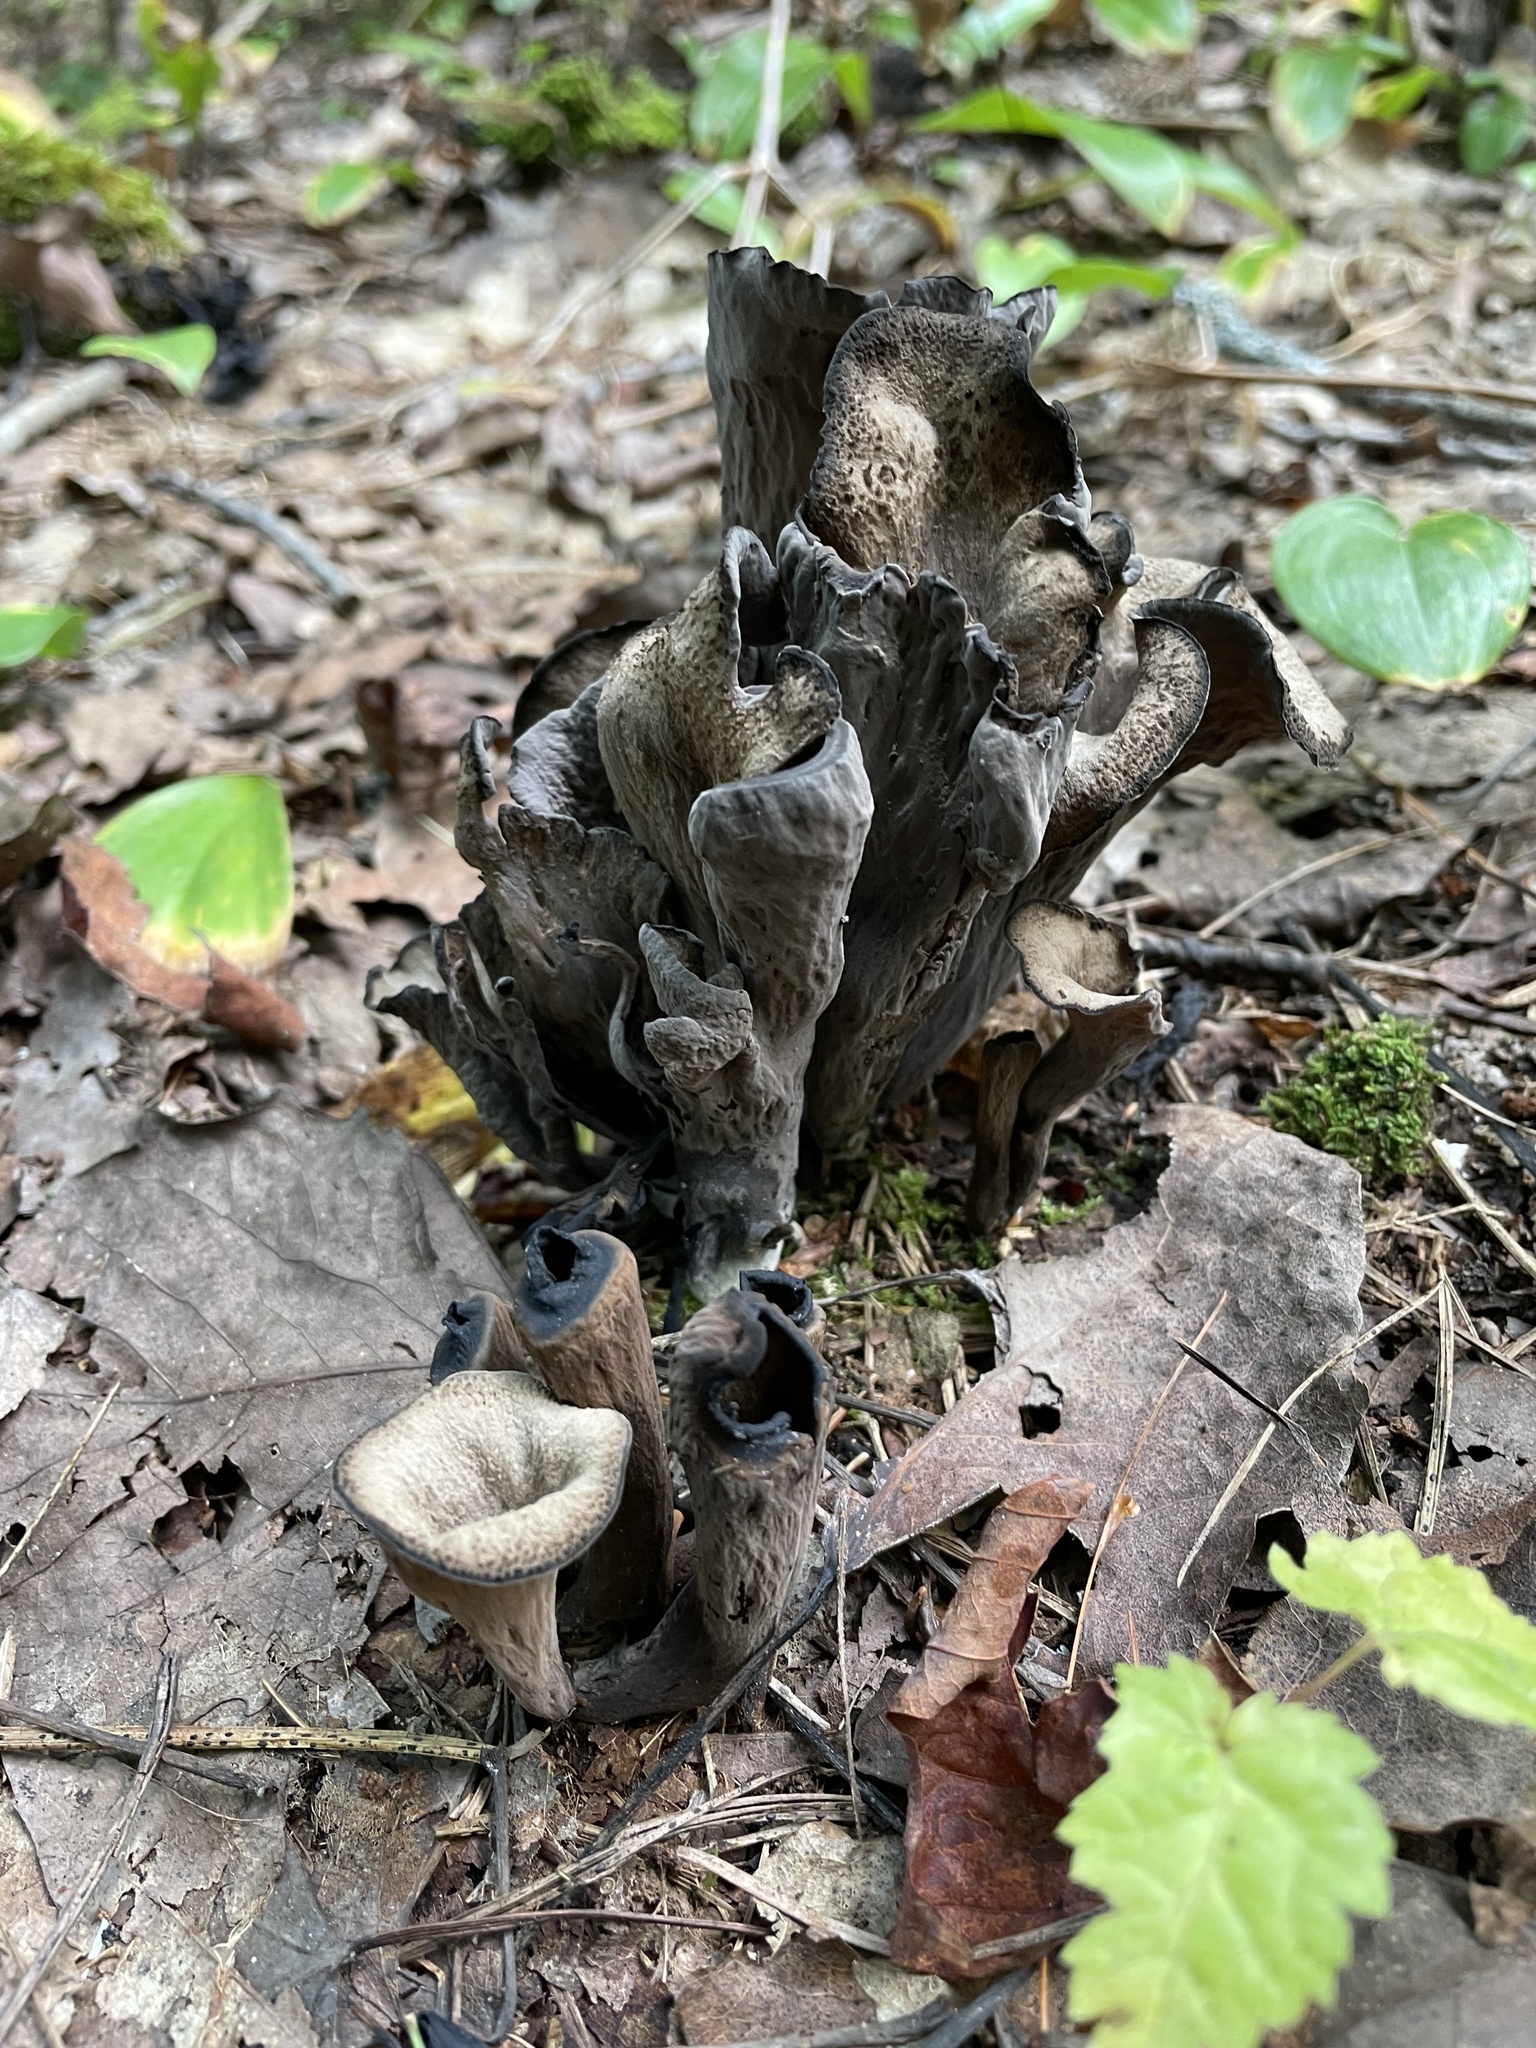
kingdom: Fungi
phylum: Basidiomycota
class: Agaricomycetes
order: Cantharellales
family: Hydnaceae
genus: Craterellus
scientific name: Craterellus cornucopioides
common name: Horn of plenty
